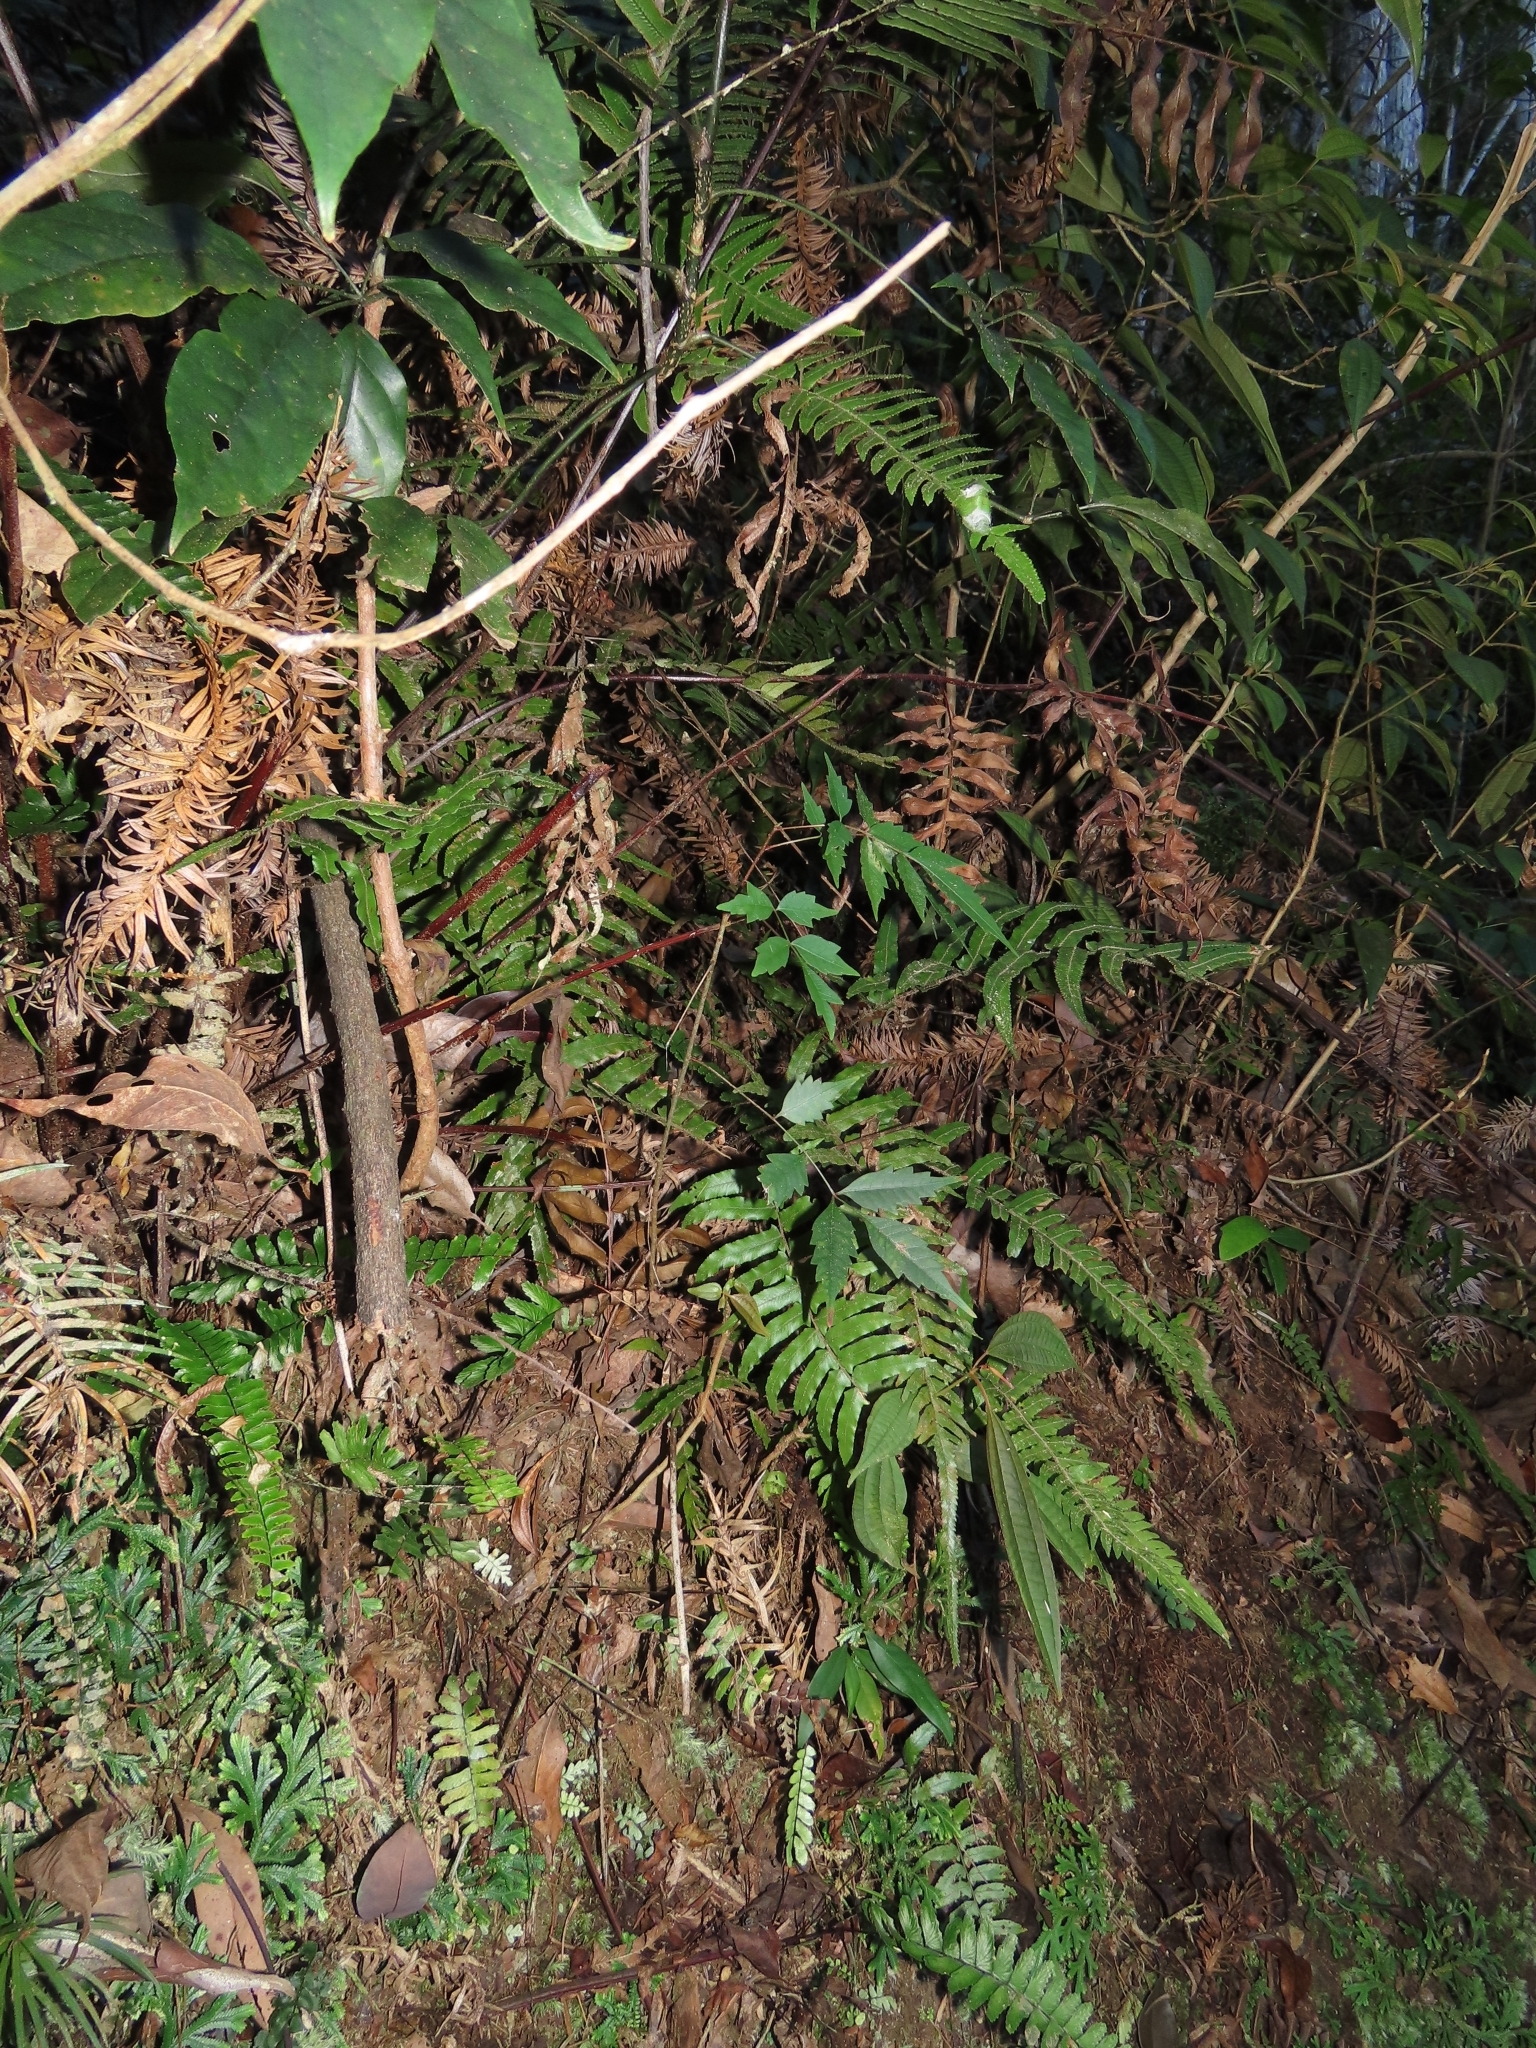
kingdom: Plantae
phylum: Tracheophyta
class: Magnoliopsida
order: Sapindales
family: Anacardiaceae
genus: Toxicodendron
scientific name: Toxicodendron succedaneum
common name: Wax tree
